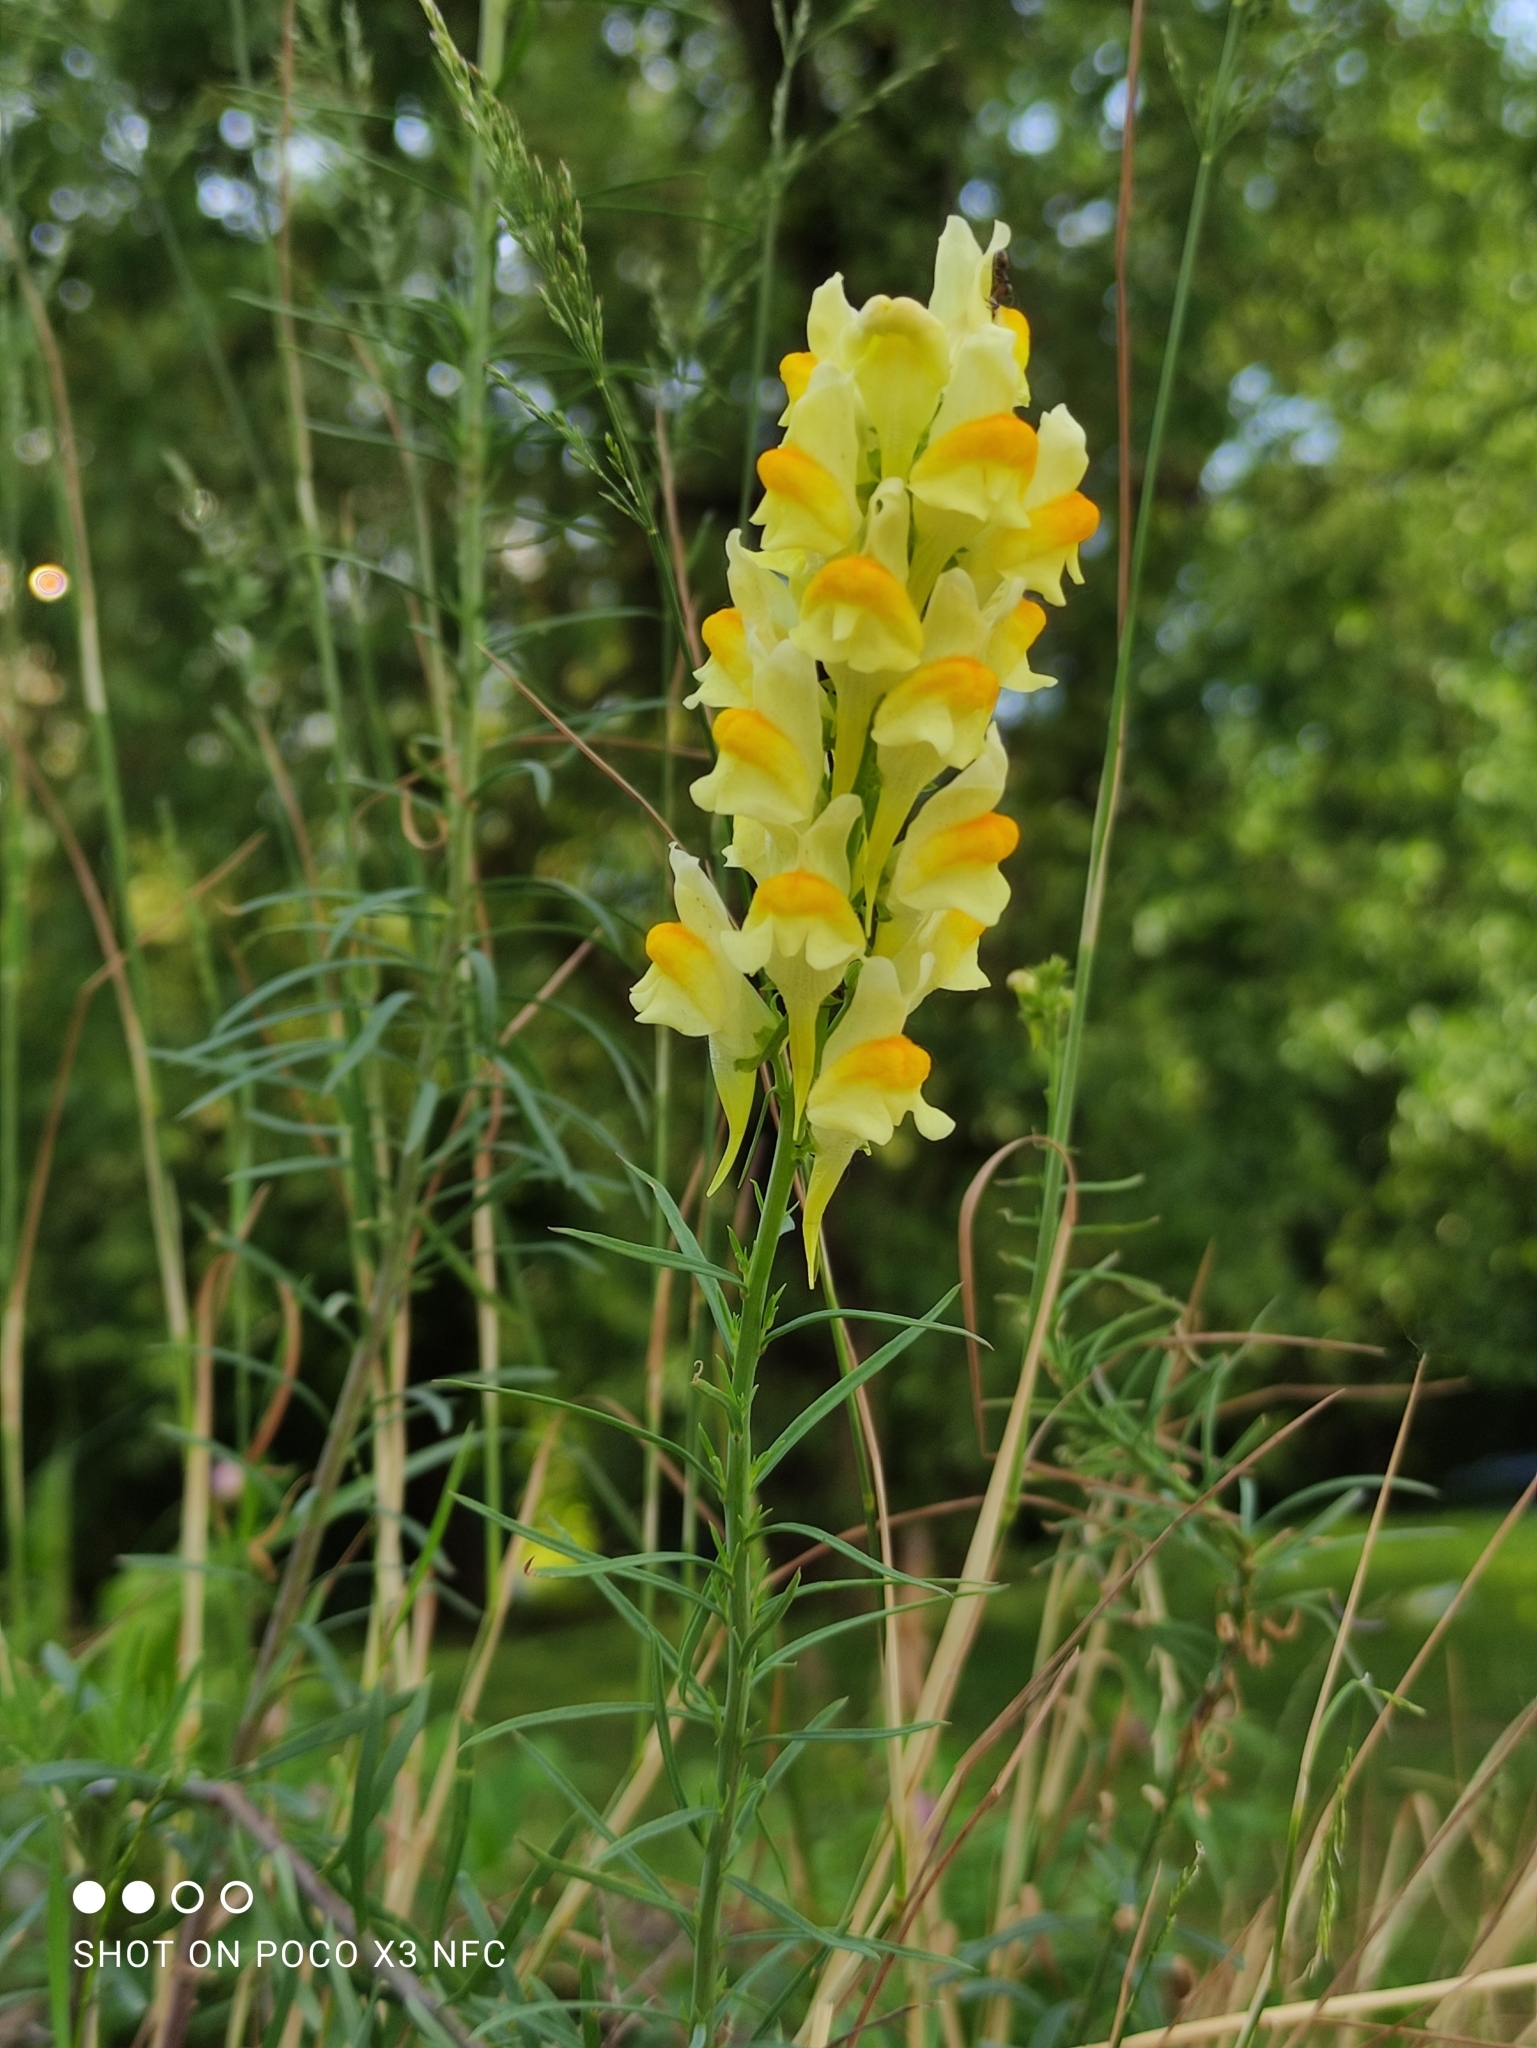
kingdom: Plantae
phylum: Tracheophyta
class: Magnoliopsida
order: Lamiales
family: Plantaginaceae
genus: Linaria
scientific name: Linaria vulgaris
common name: Butter and eggs
